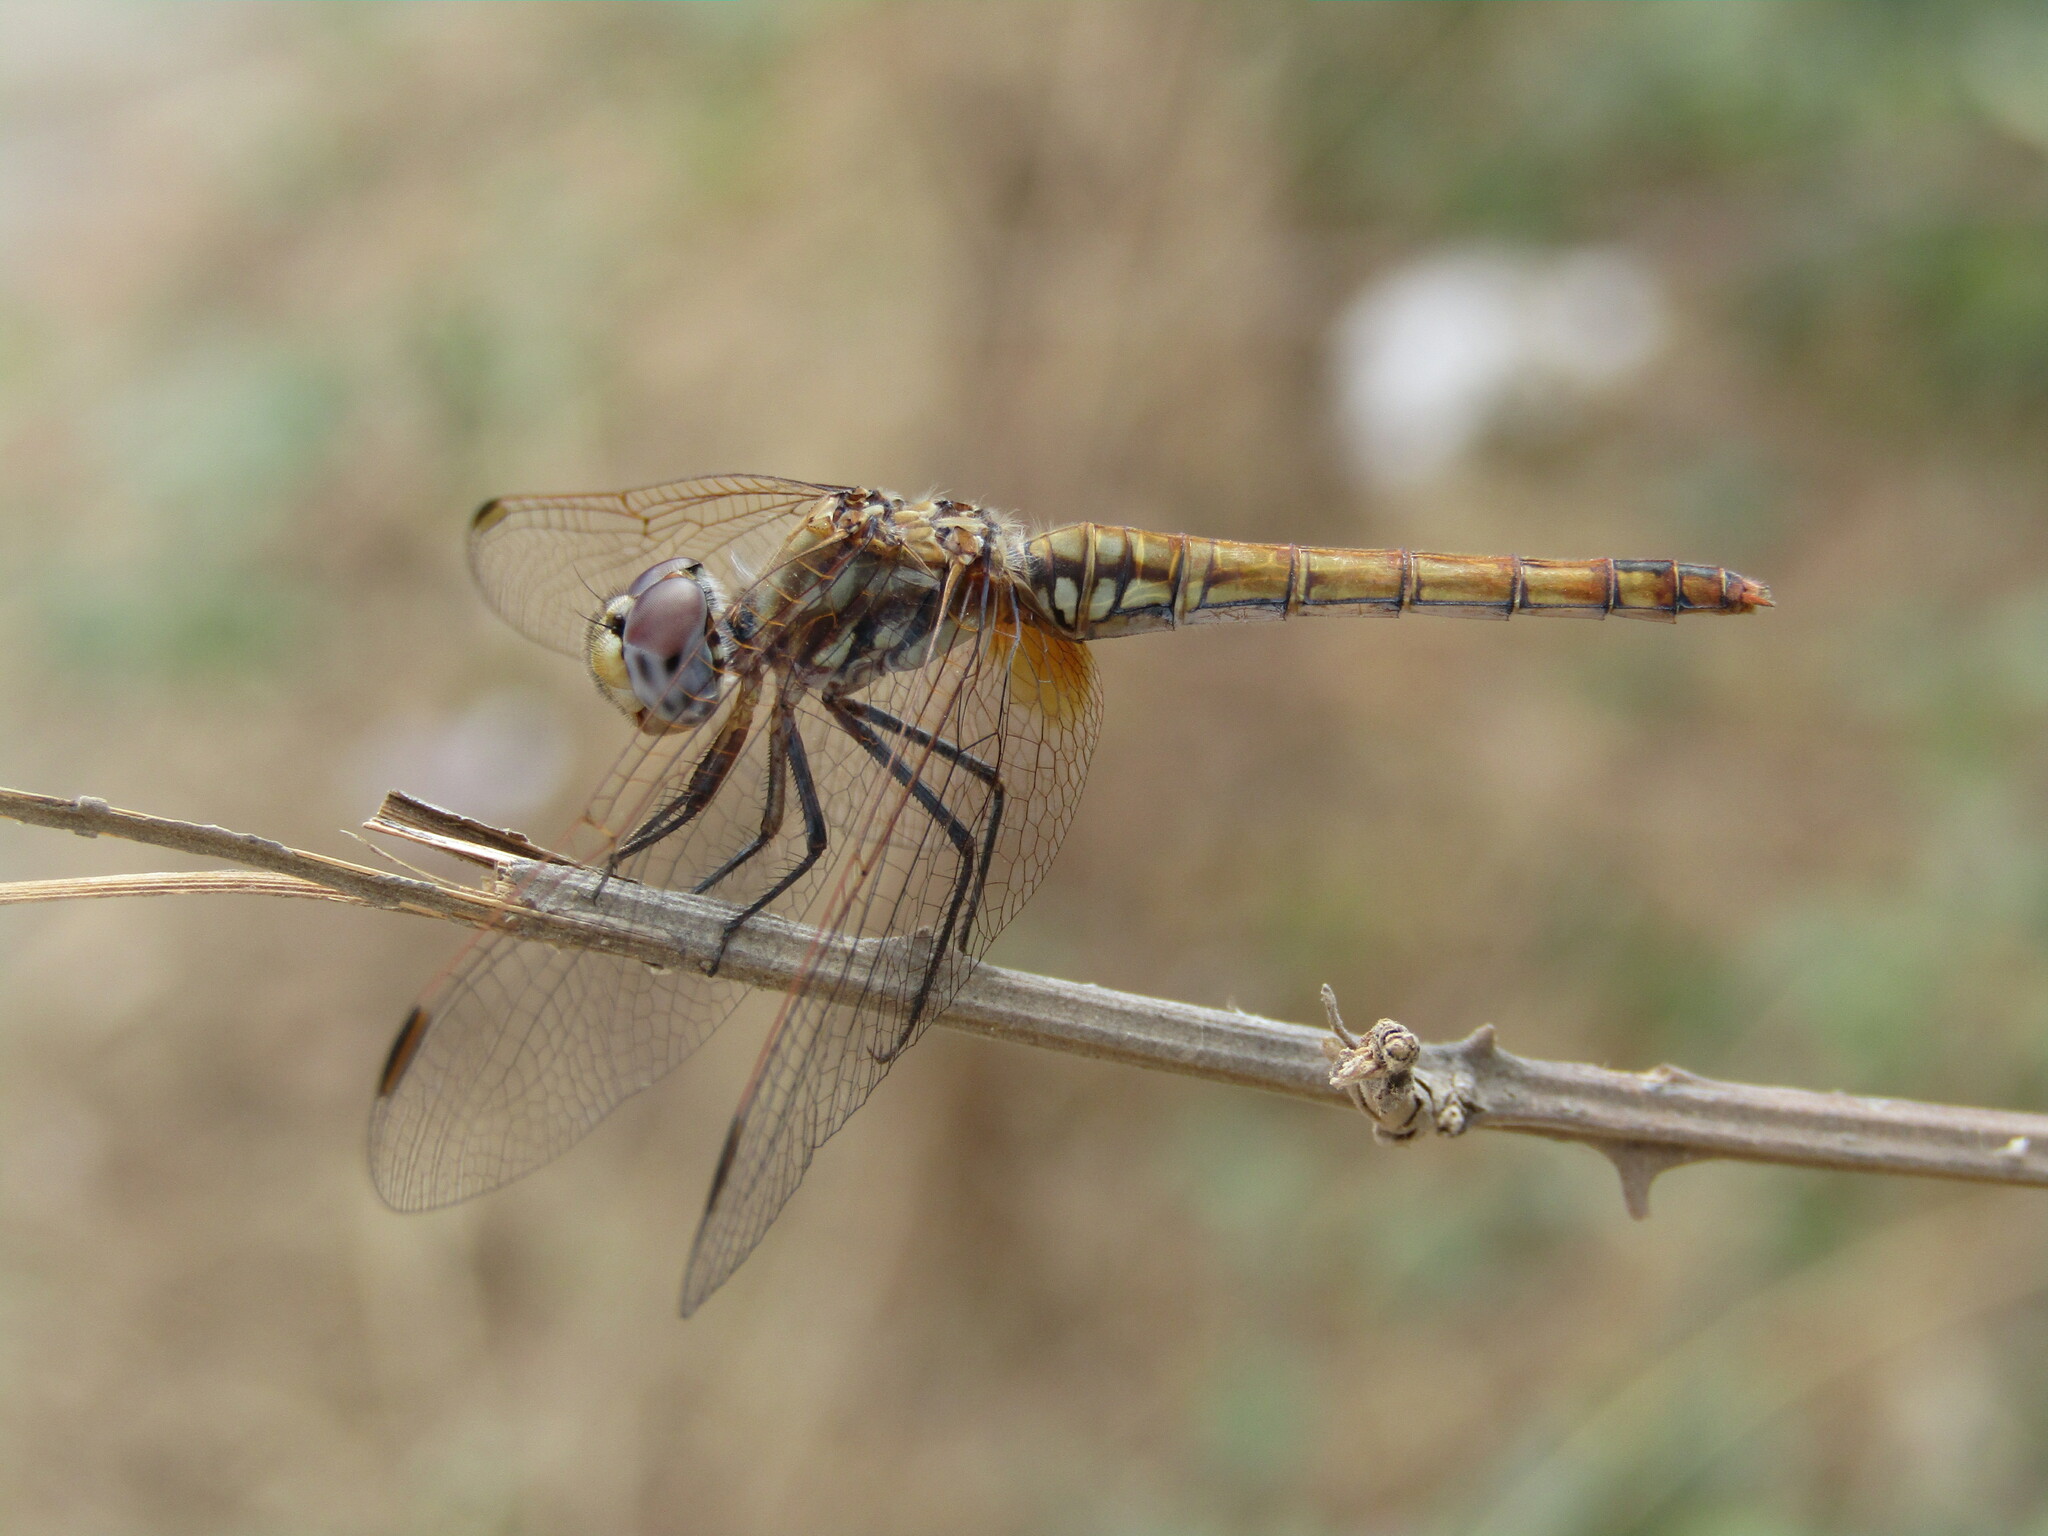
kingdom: Animalia
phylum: Arthropoda
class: Insecta
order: Odonata
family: Libellulidae
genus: Trithemis
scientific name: Trithemis annulata
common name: Violet dropwing
